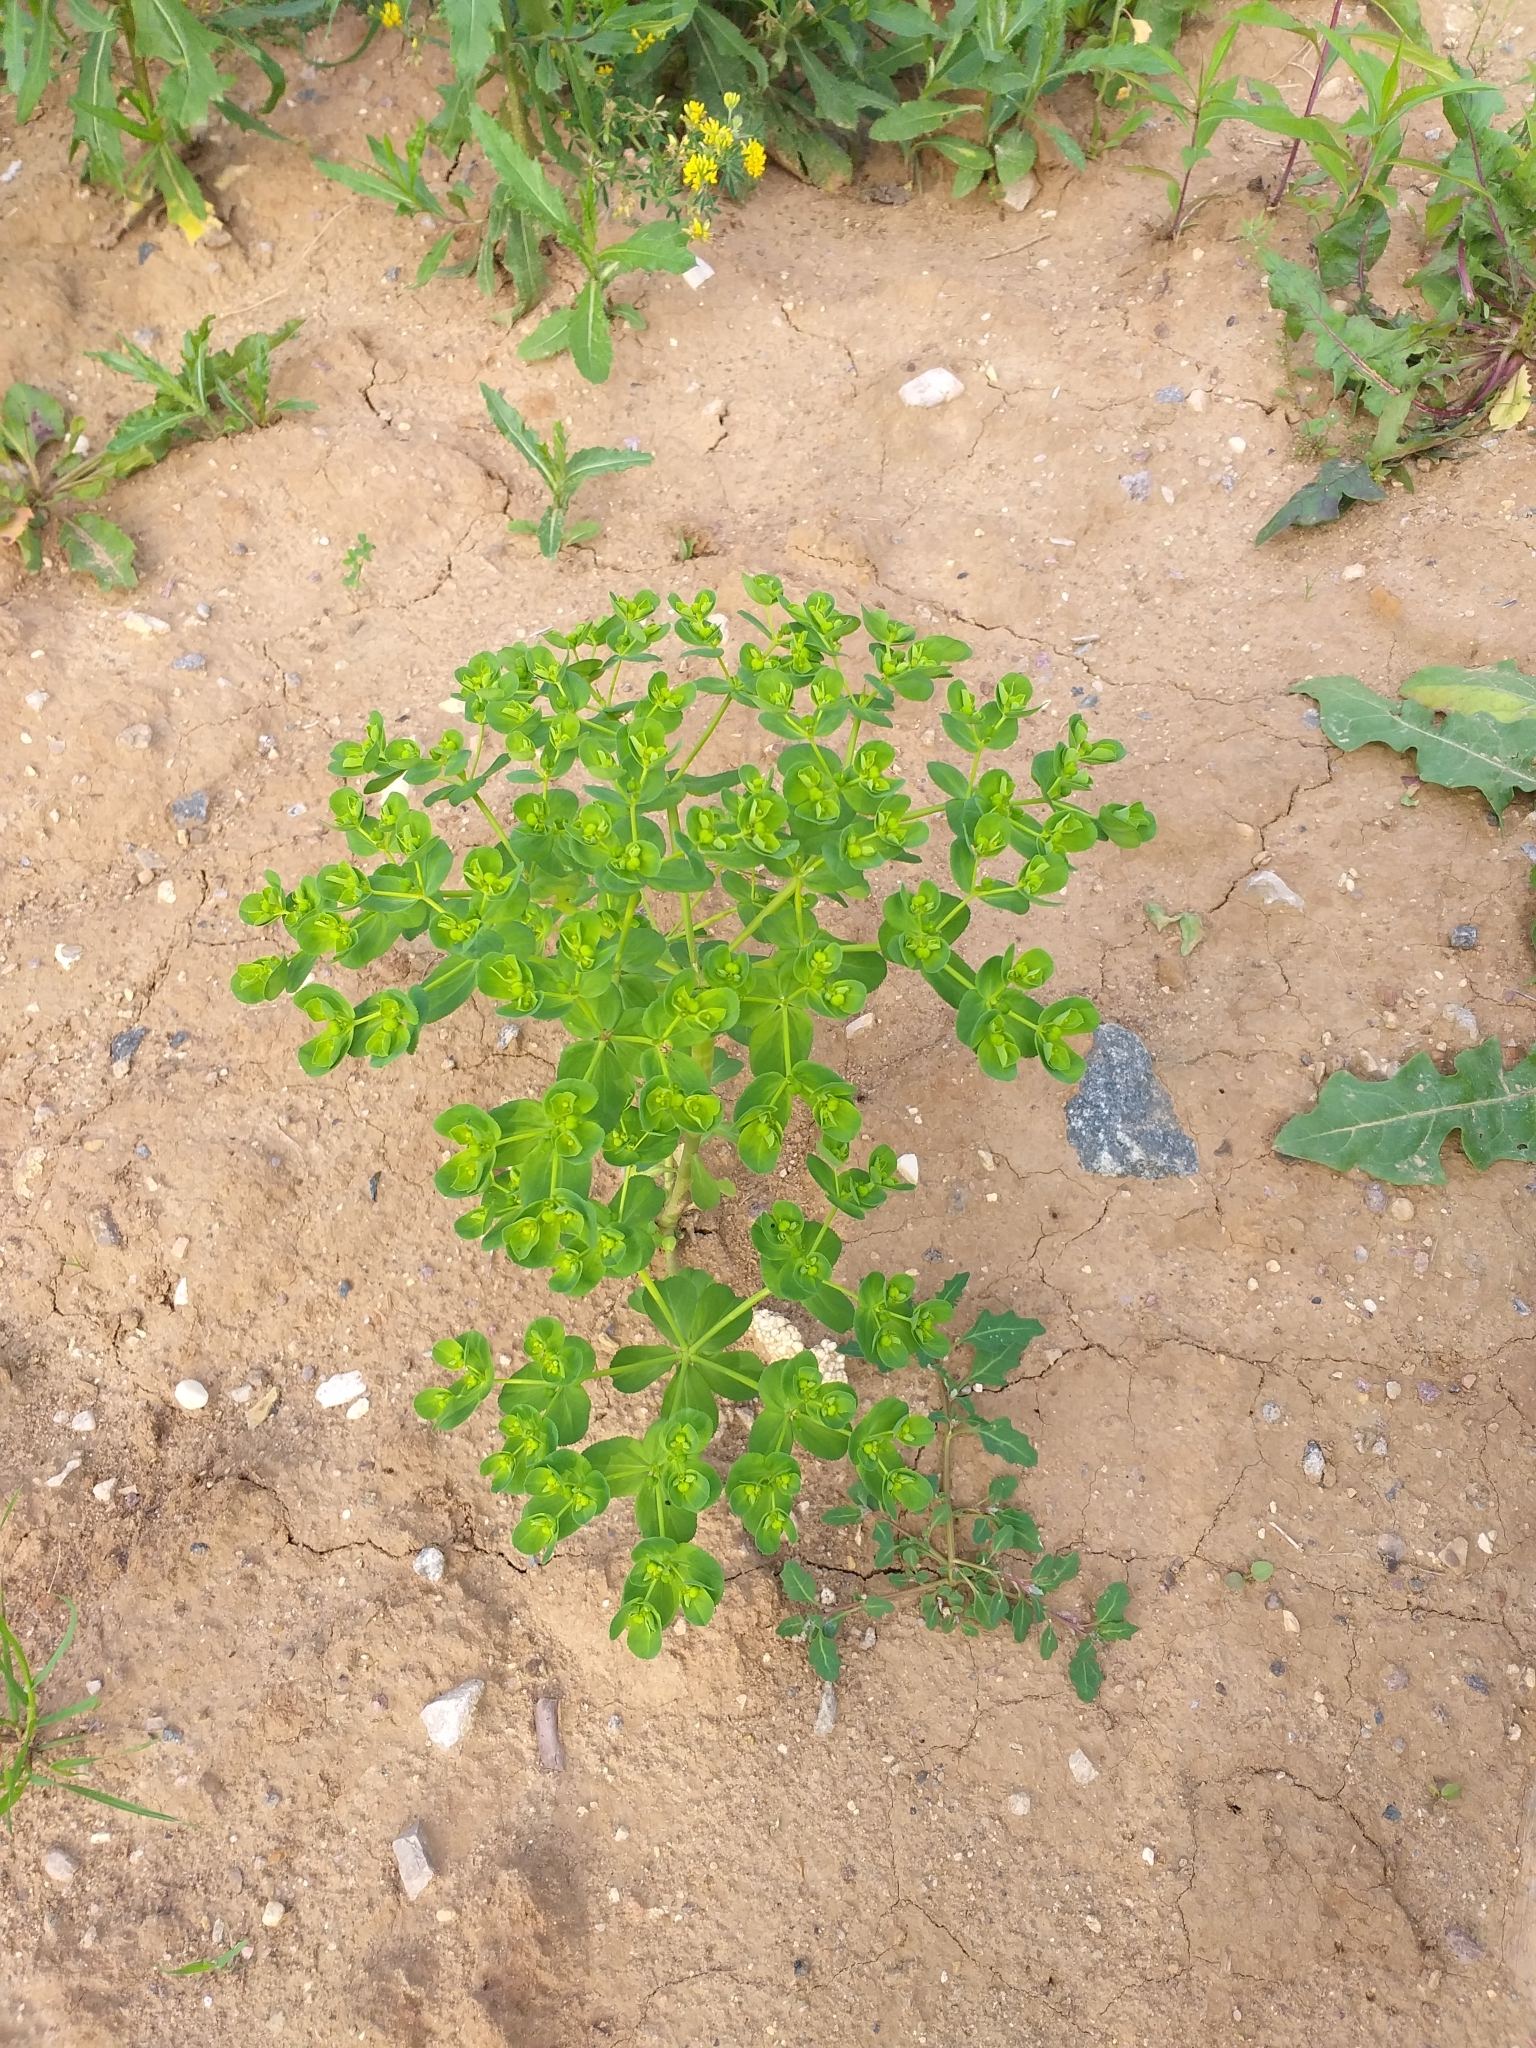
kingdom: Plantae
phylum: Tracheophyta
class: Magnoliopsida
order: Malpighiales
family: Euphorbiaceae
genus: Euphorbia
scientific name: Euphorbia helioscopia
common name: Sun spurge
